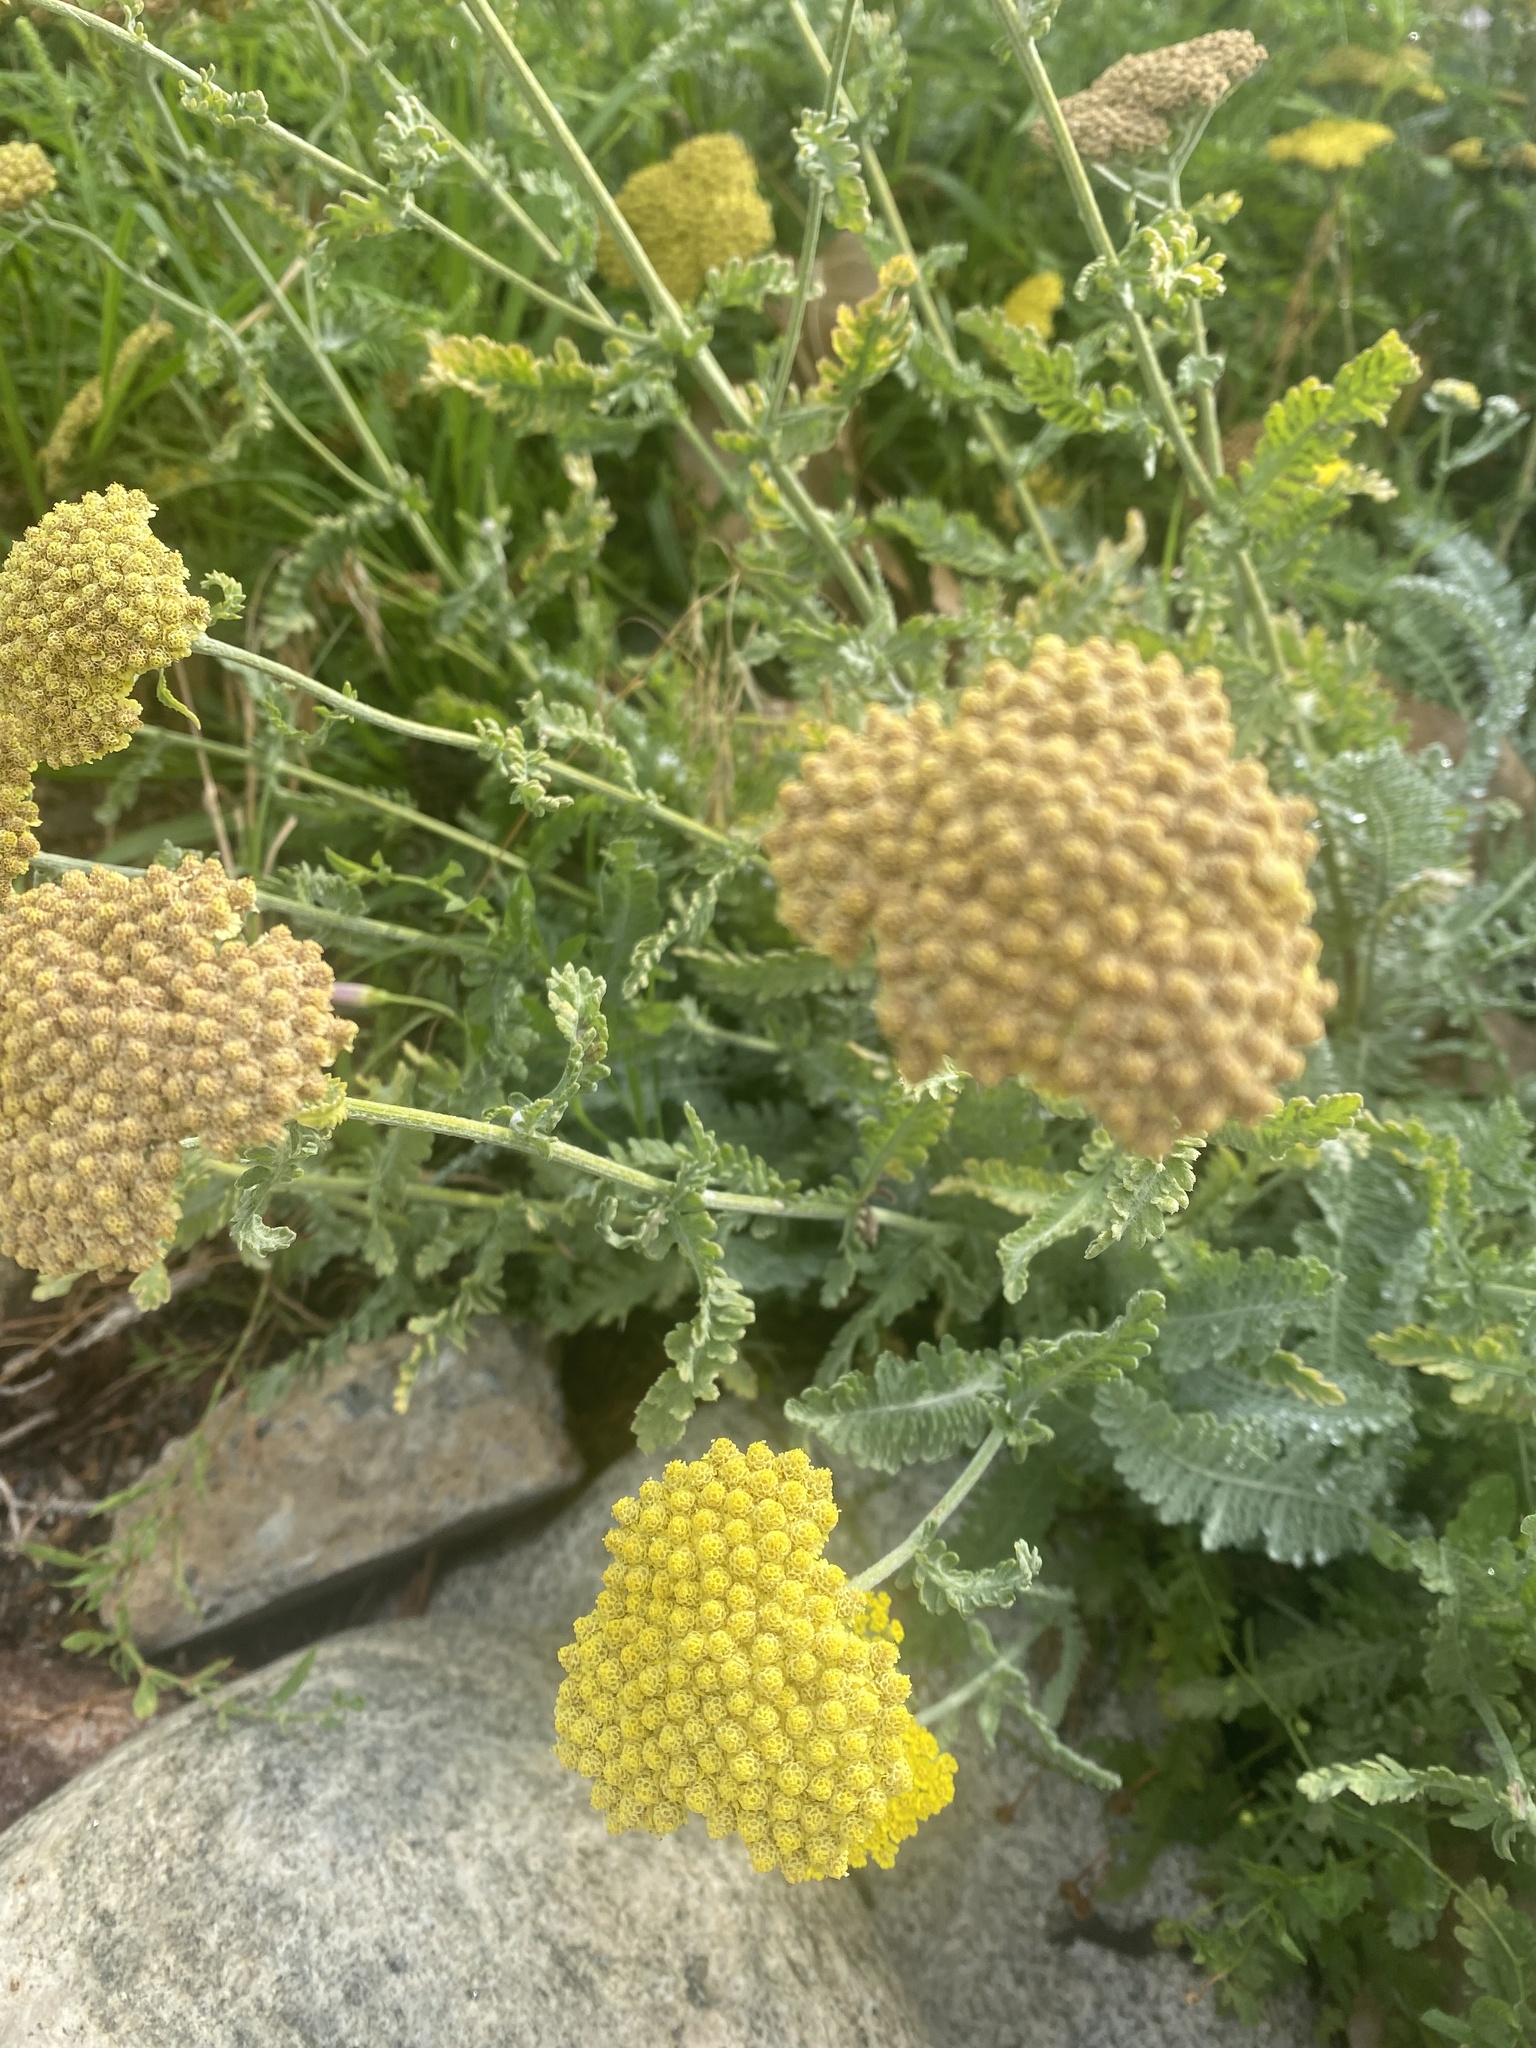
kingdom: Plantae
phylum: Tracheophyta
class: Magnoliopsida
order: Asterales
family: Asteraceae
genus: Achillea
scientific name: Achillea filipendulina
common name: Fernleaf yarrow
